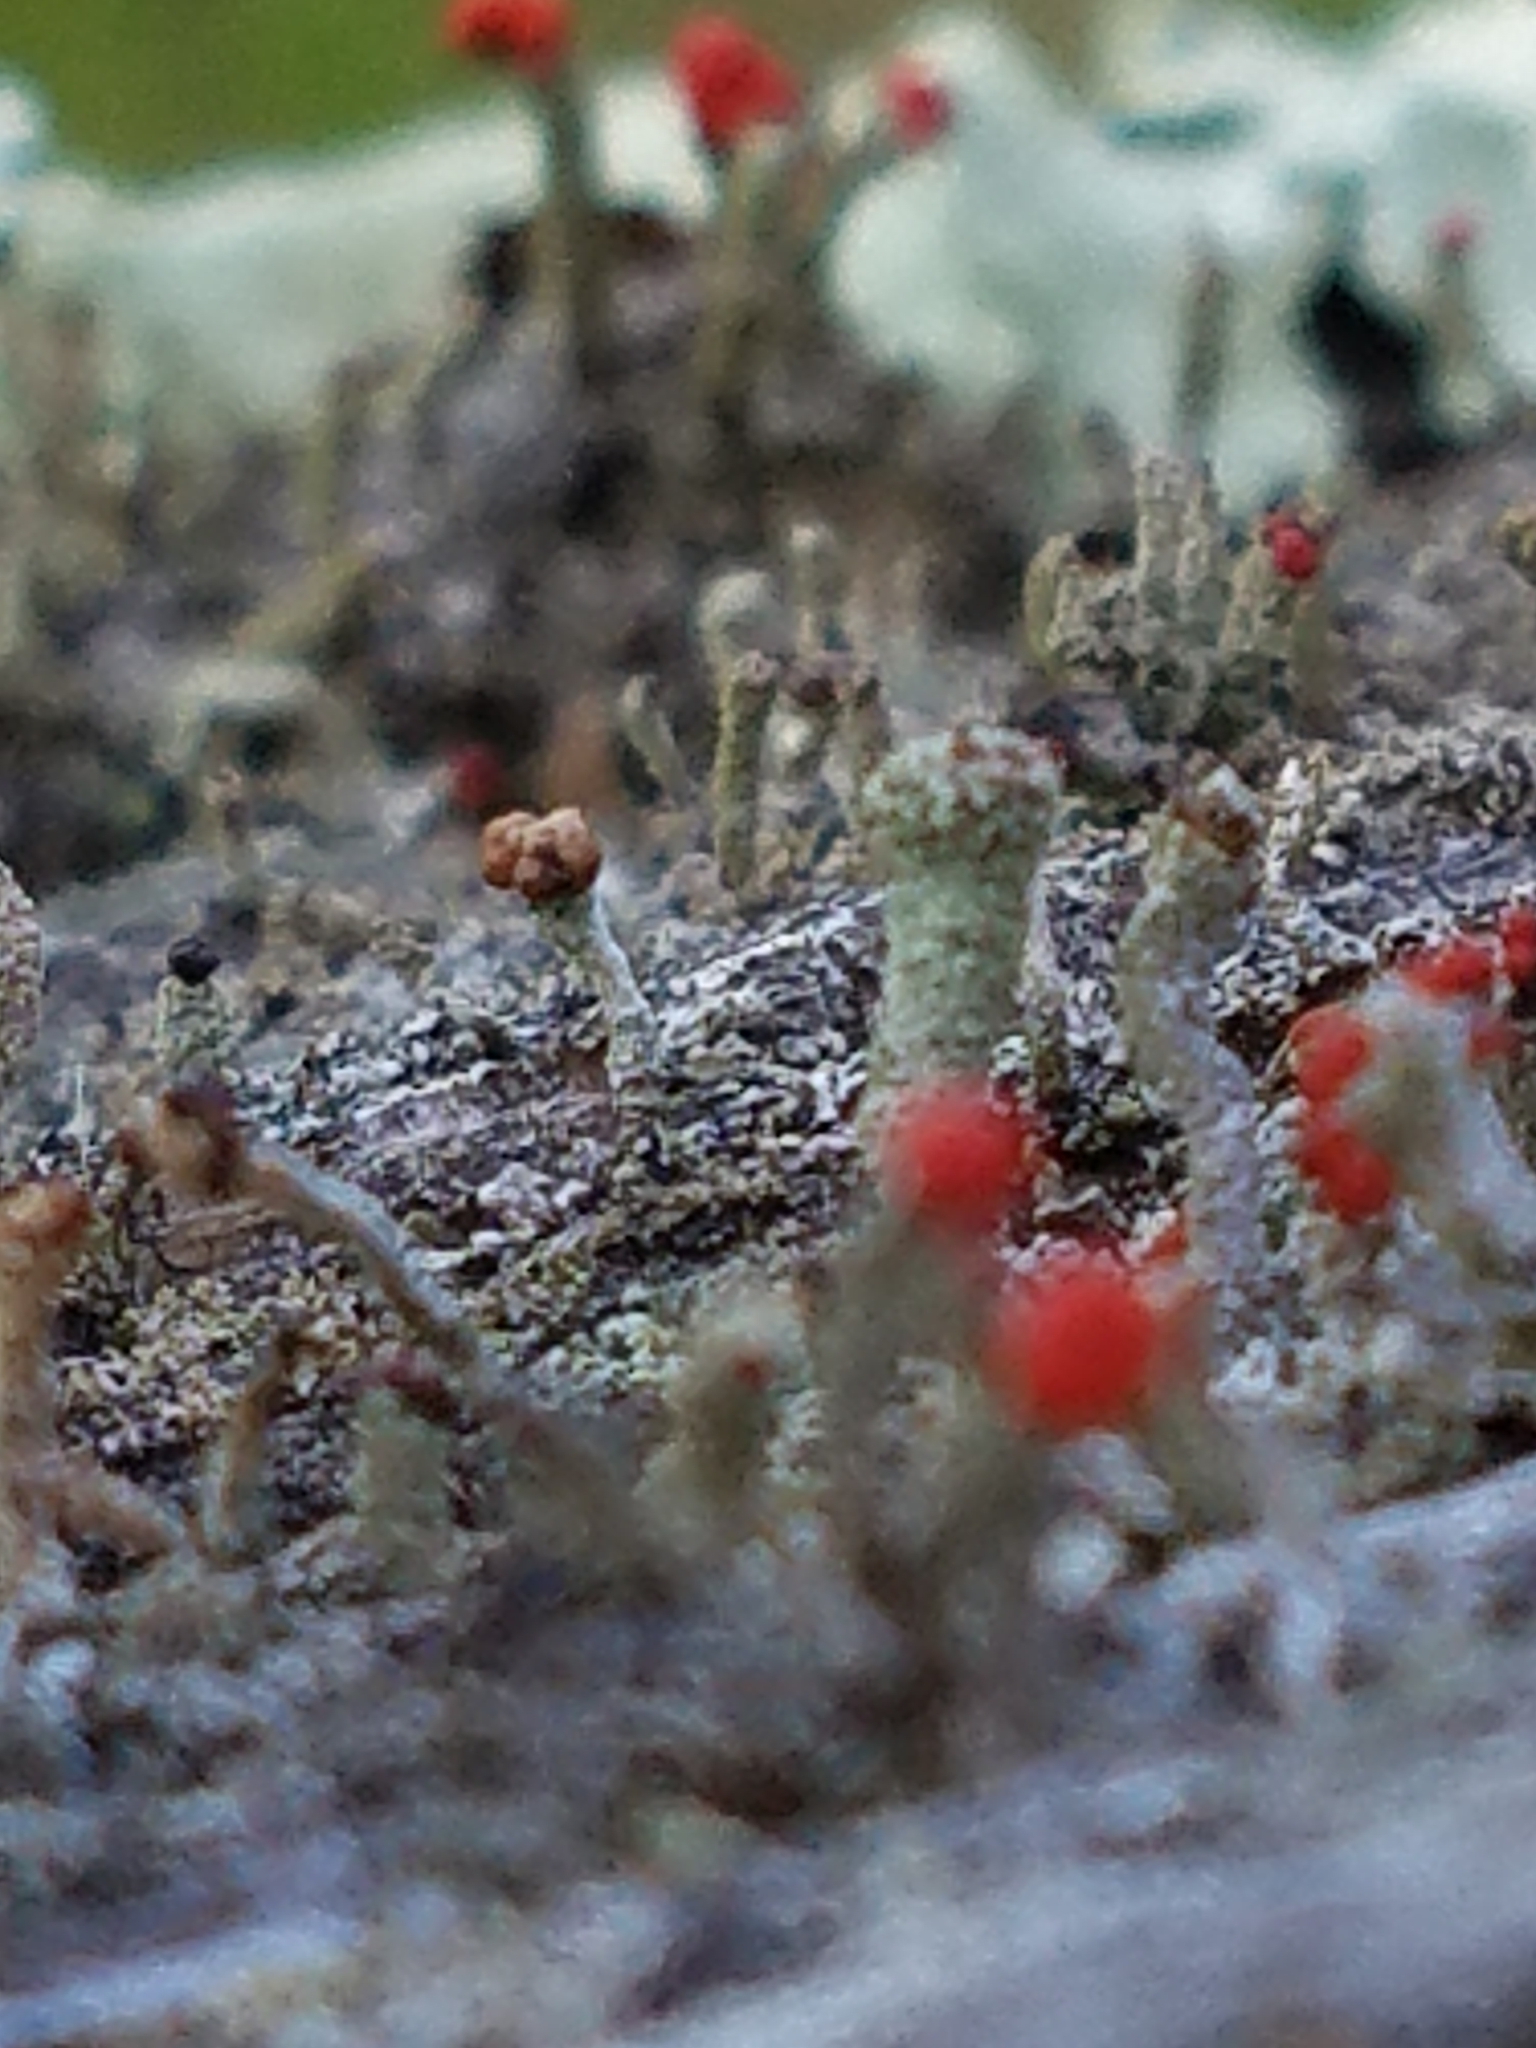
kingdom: Fungi
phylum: Ascomycota
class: Lecanoromycetes
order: Lecanorales
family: Cladoniaceae
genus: Cladonia
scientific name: Cladonia cristatella
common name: British soldier lichen
